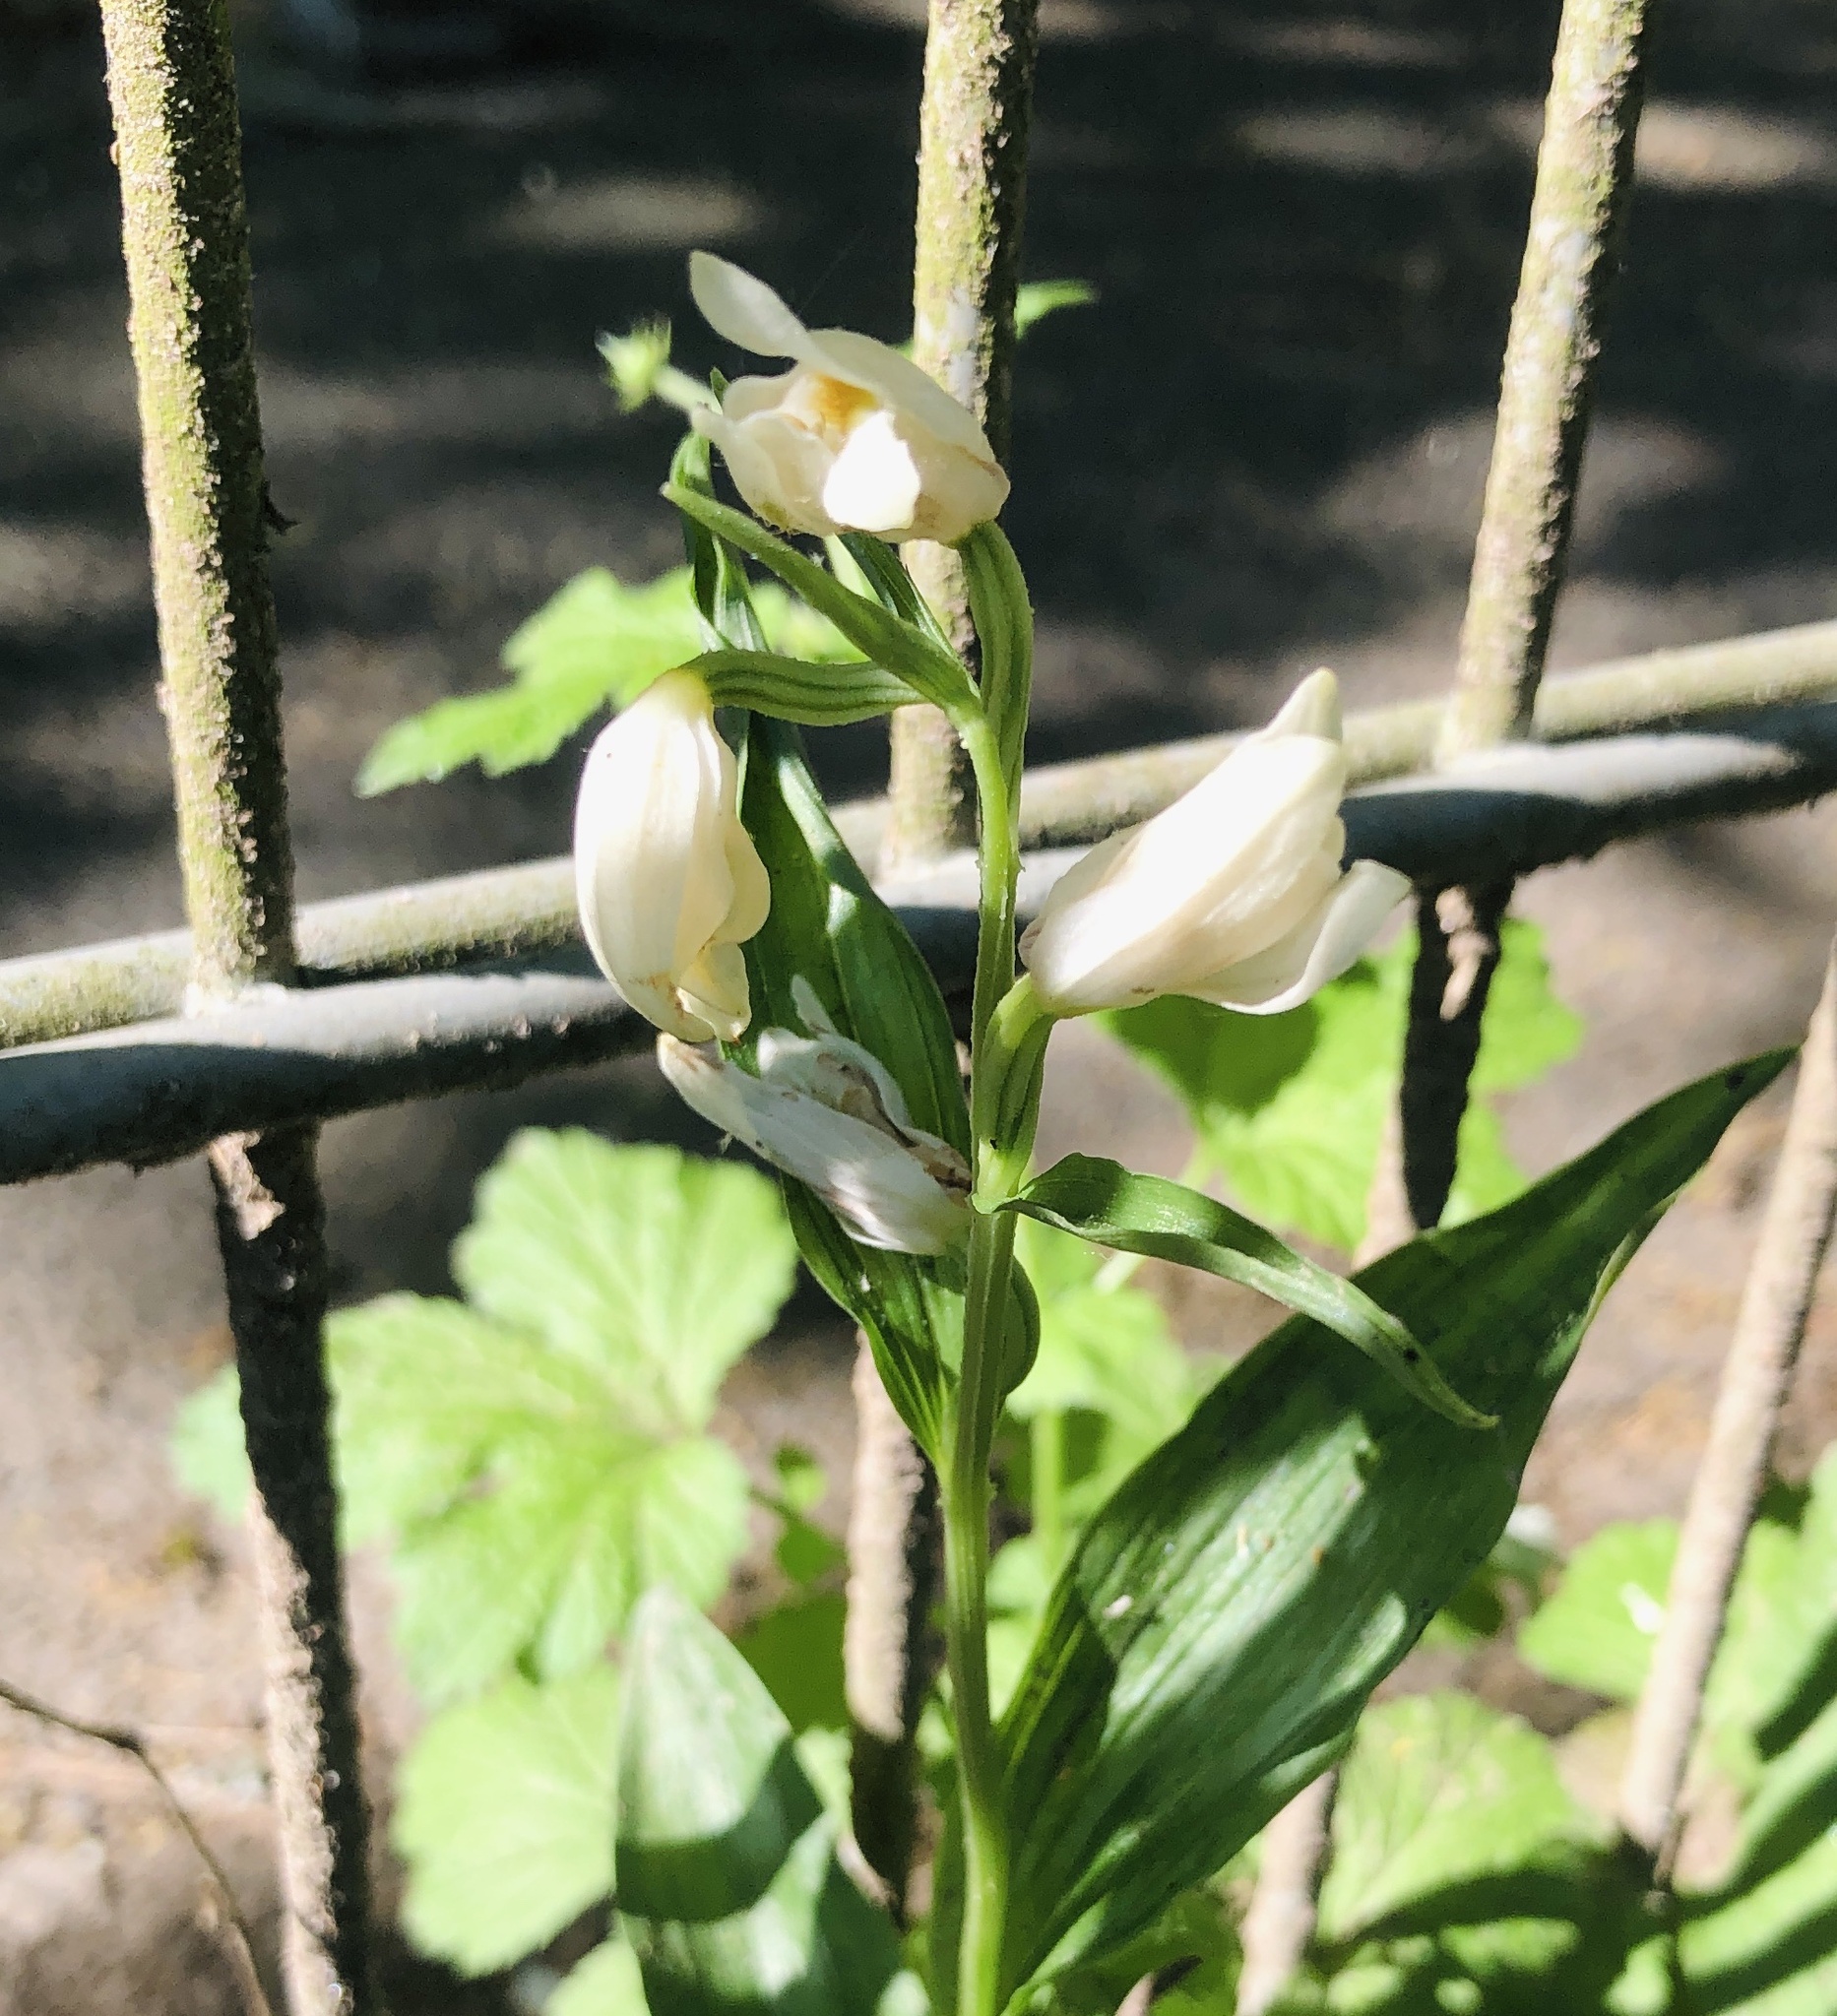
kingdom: Plantae
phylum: Tracheophyta
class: Liliopsida
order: Asparagales
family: Orchidaceae
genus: Cephalanthera
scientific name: Cephalanthera damasonium
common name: White helleborine
